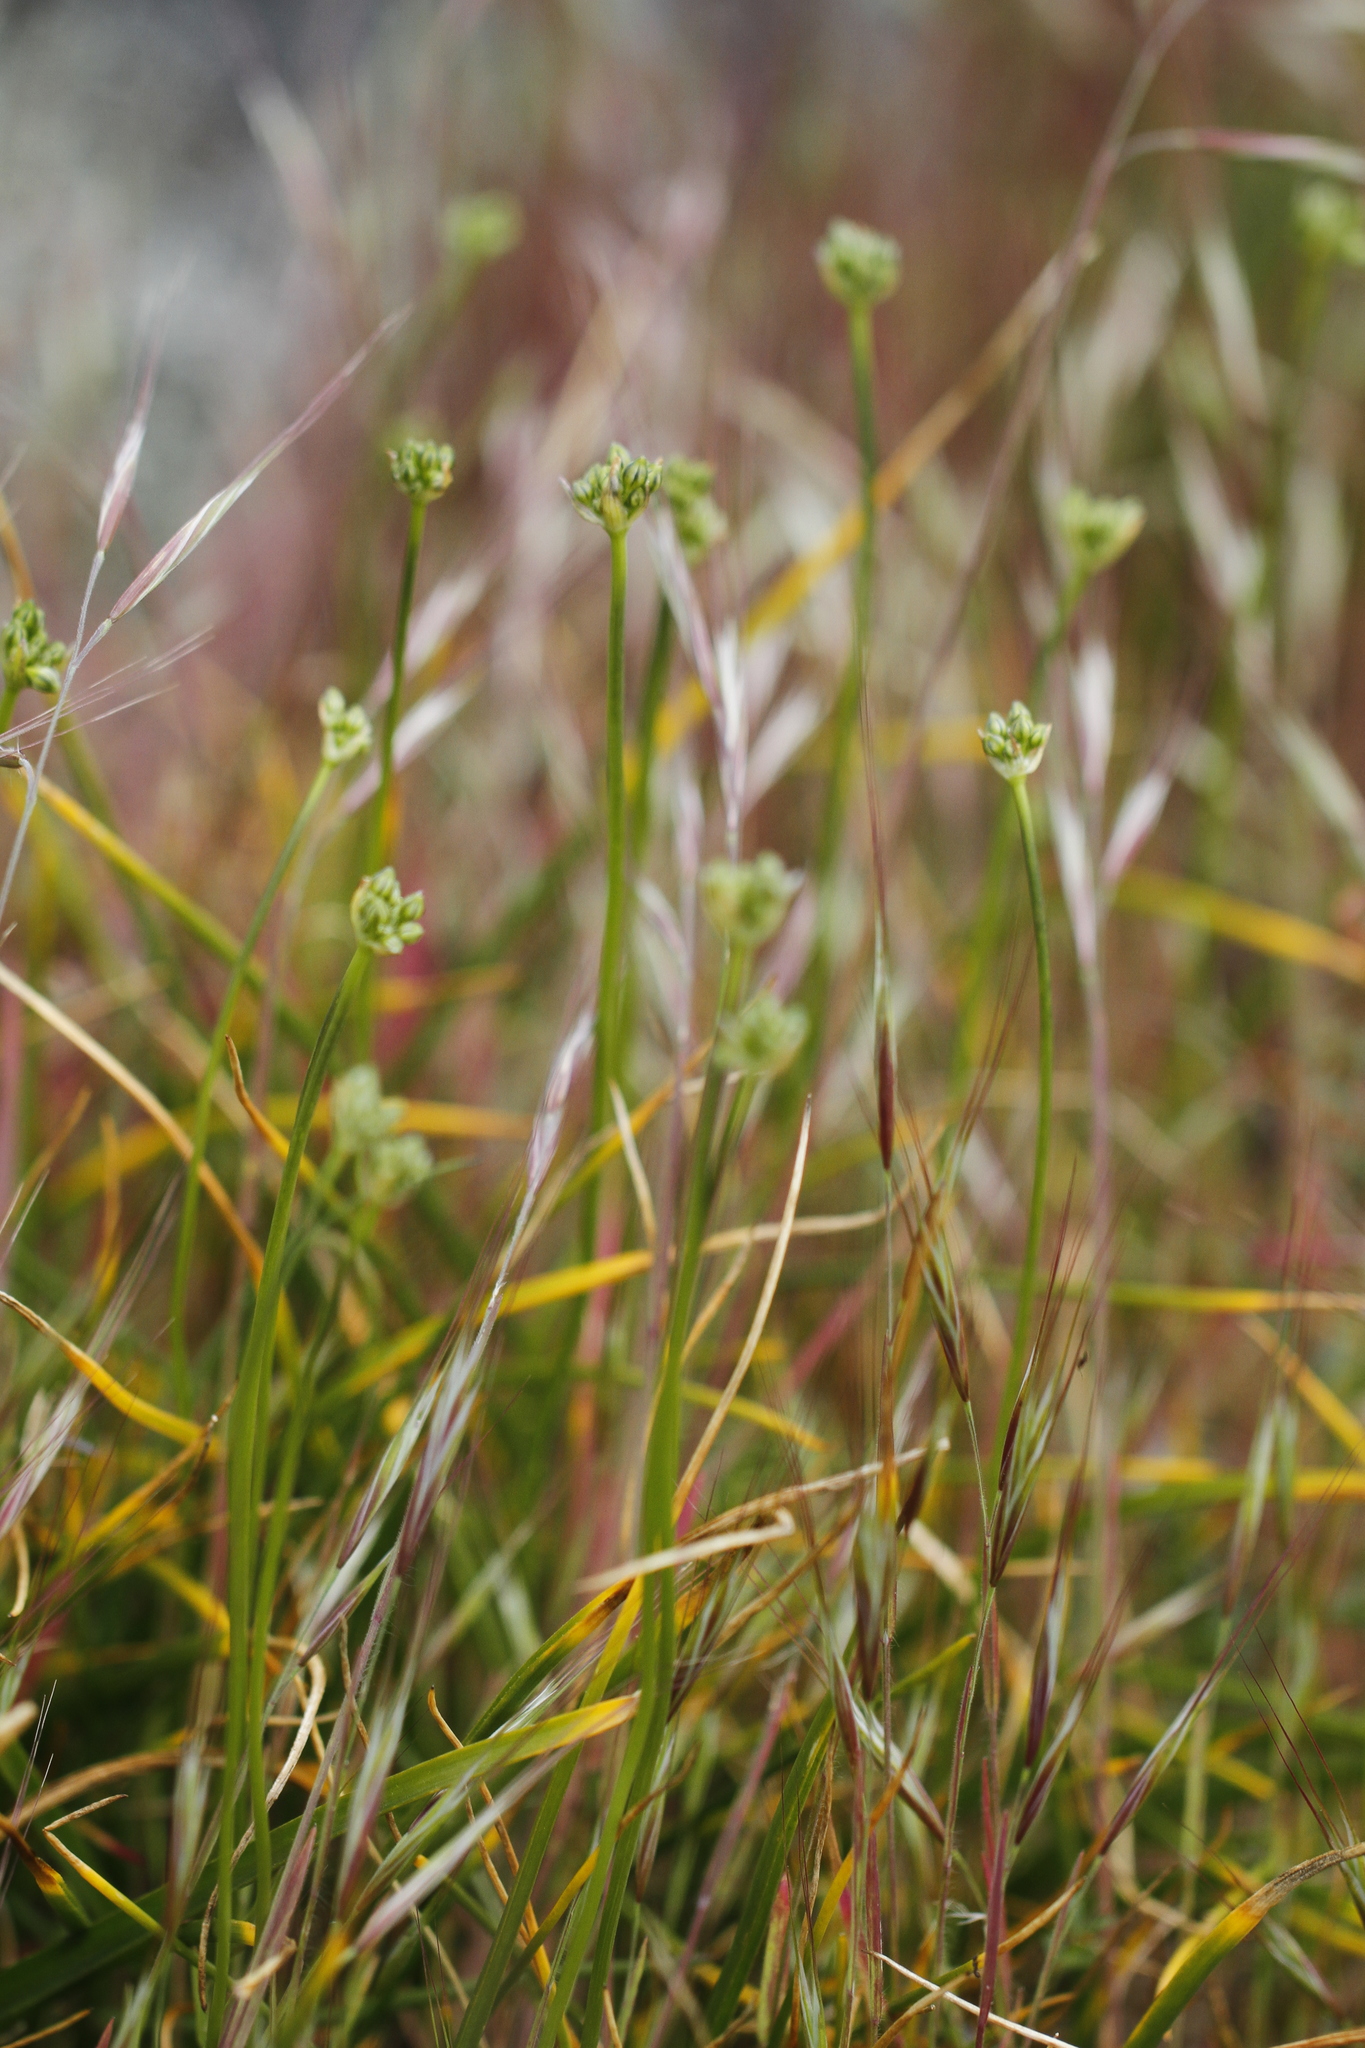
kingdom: Plantae
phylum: Tracheophyta
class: Liliopsida
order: Asparagales
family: Asparagaceae
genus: Triteleia
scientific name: Triteleia hyacinthina
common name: White brodiaea
